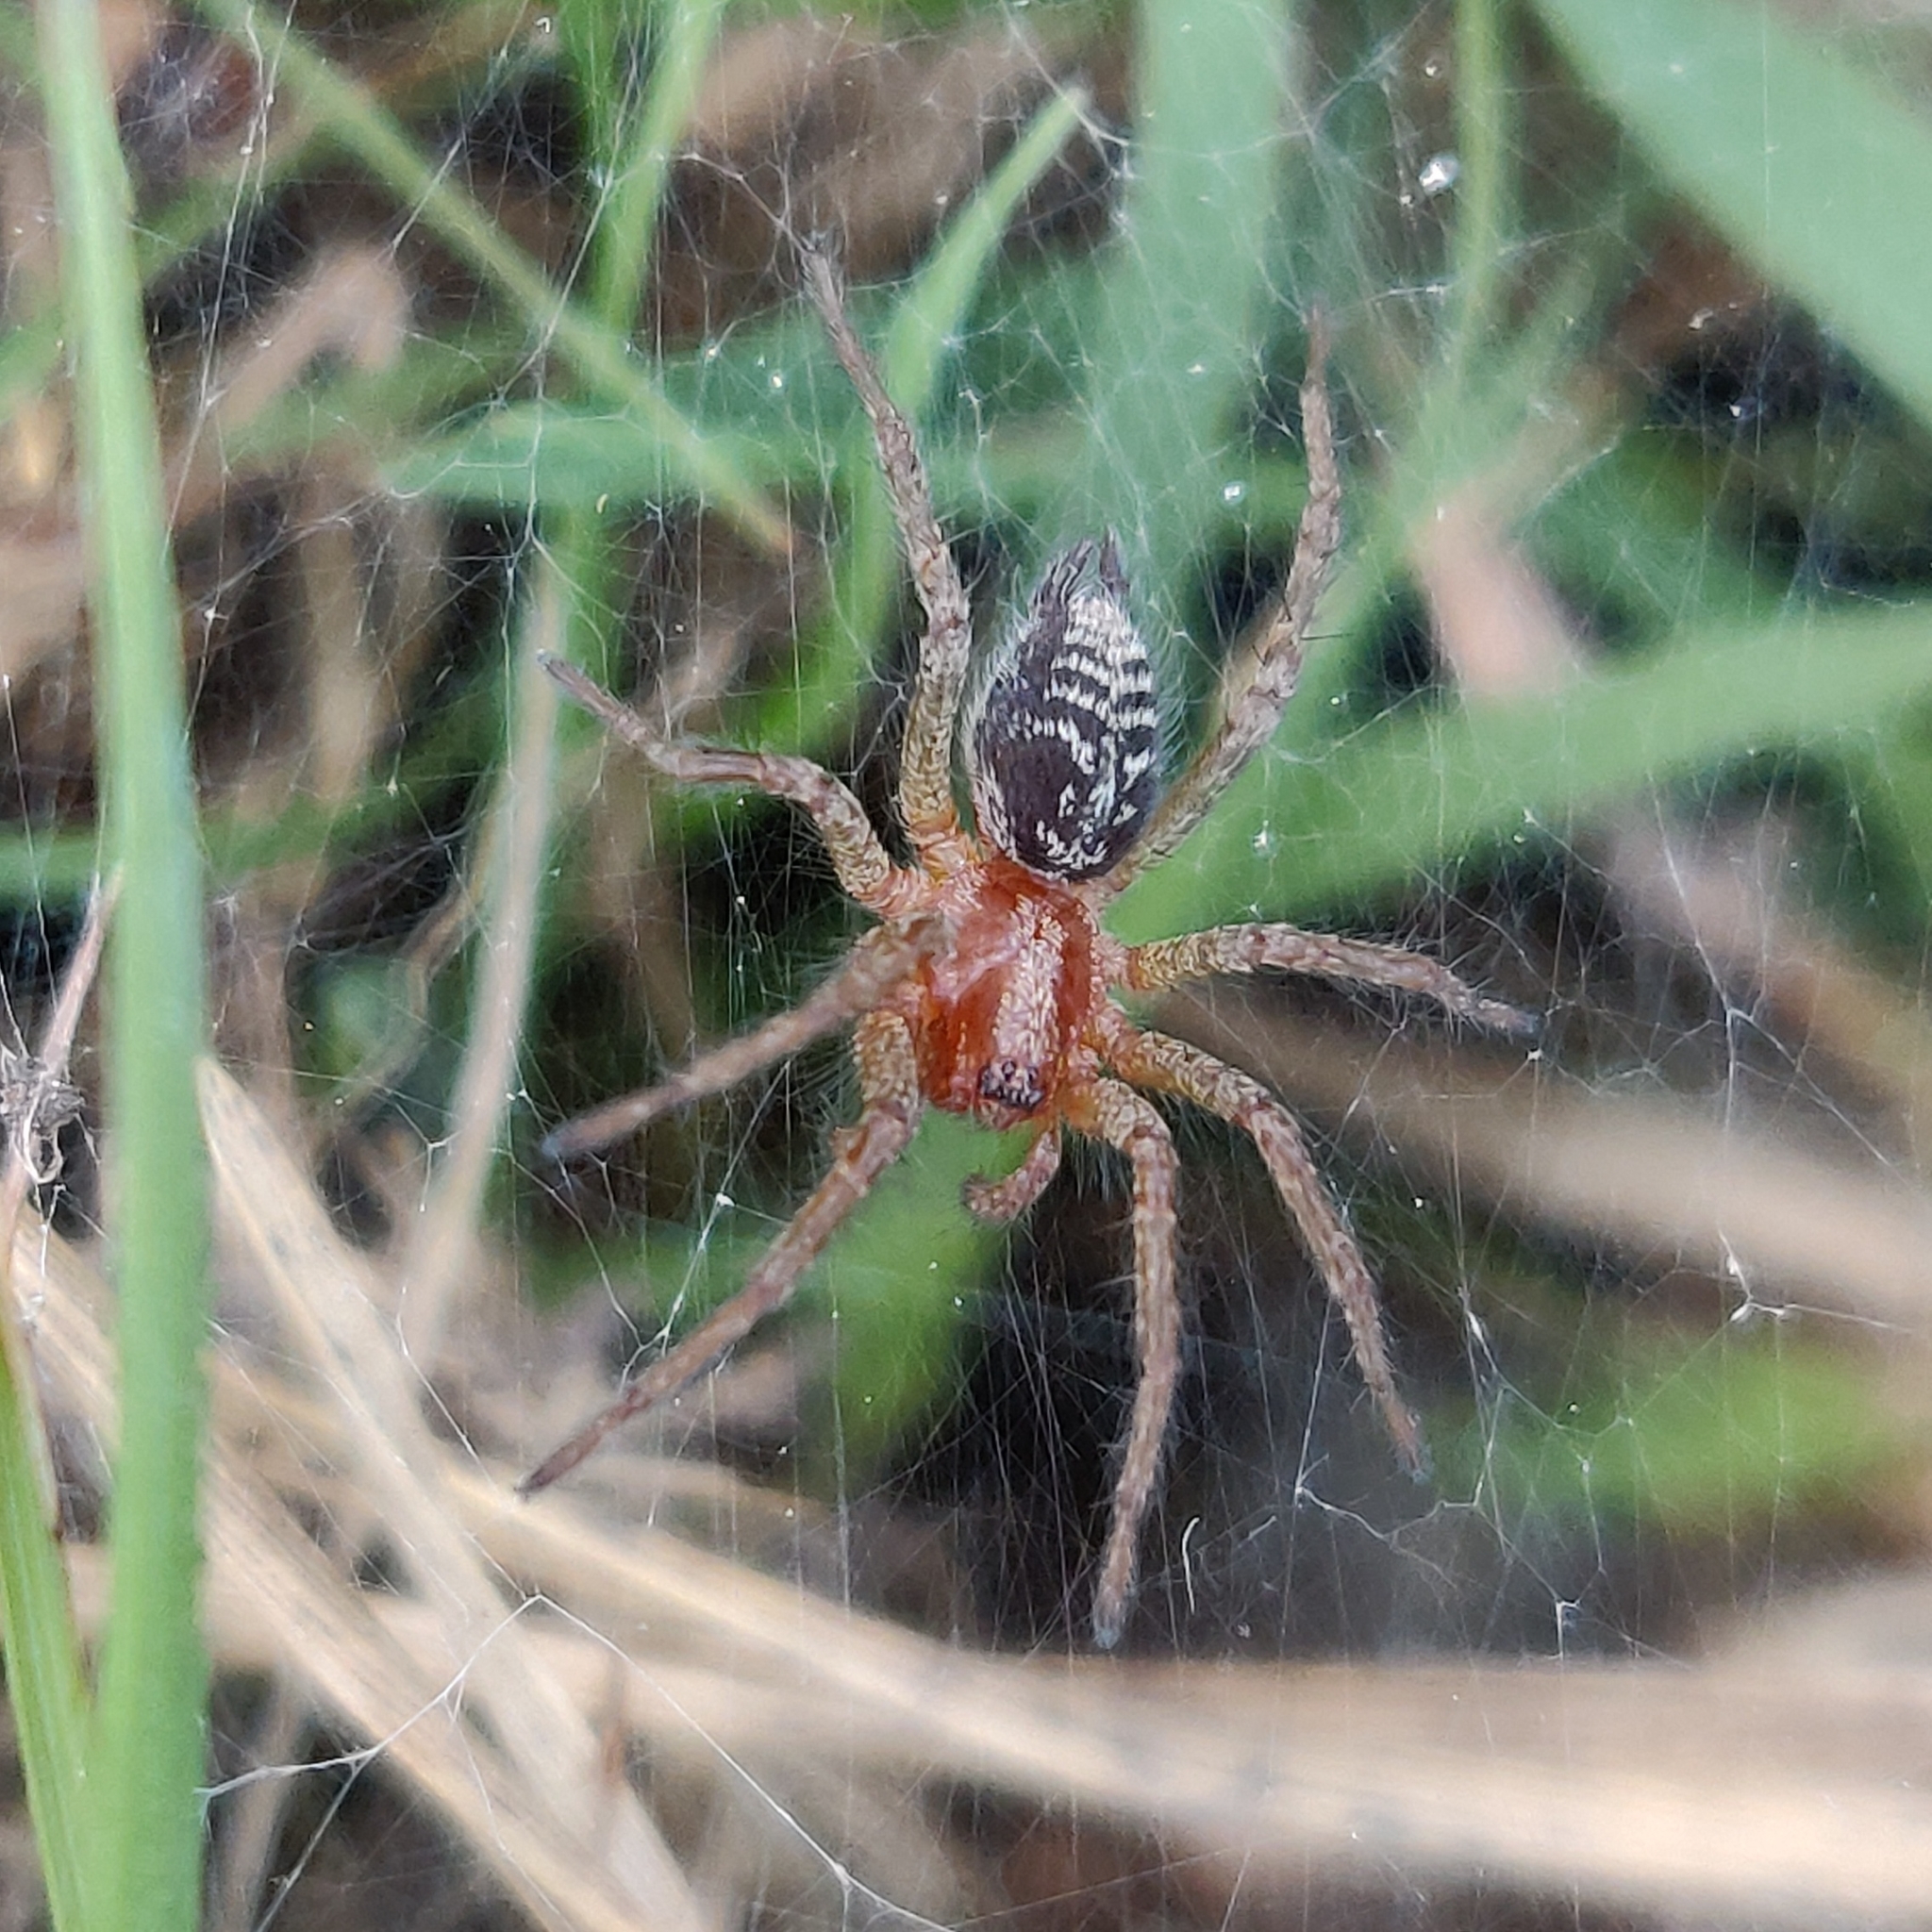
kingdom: Animalia
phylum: Arthropoda
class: Arachnida
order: Araneae
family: Agelenidae
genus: Agelena
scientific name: Agelena labyrinthica
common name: Labyrinth spider
